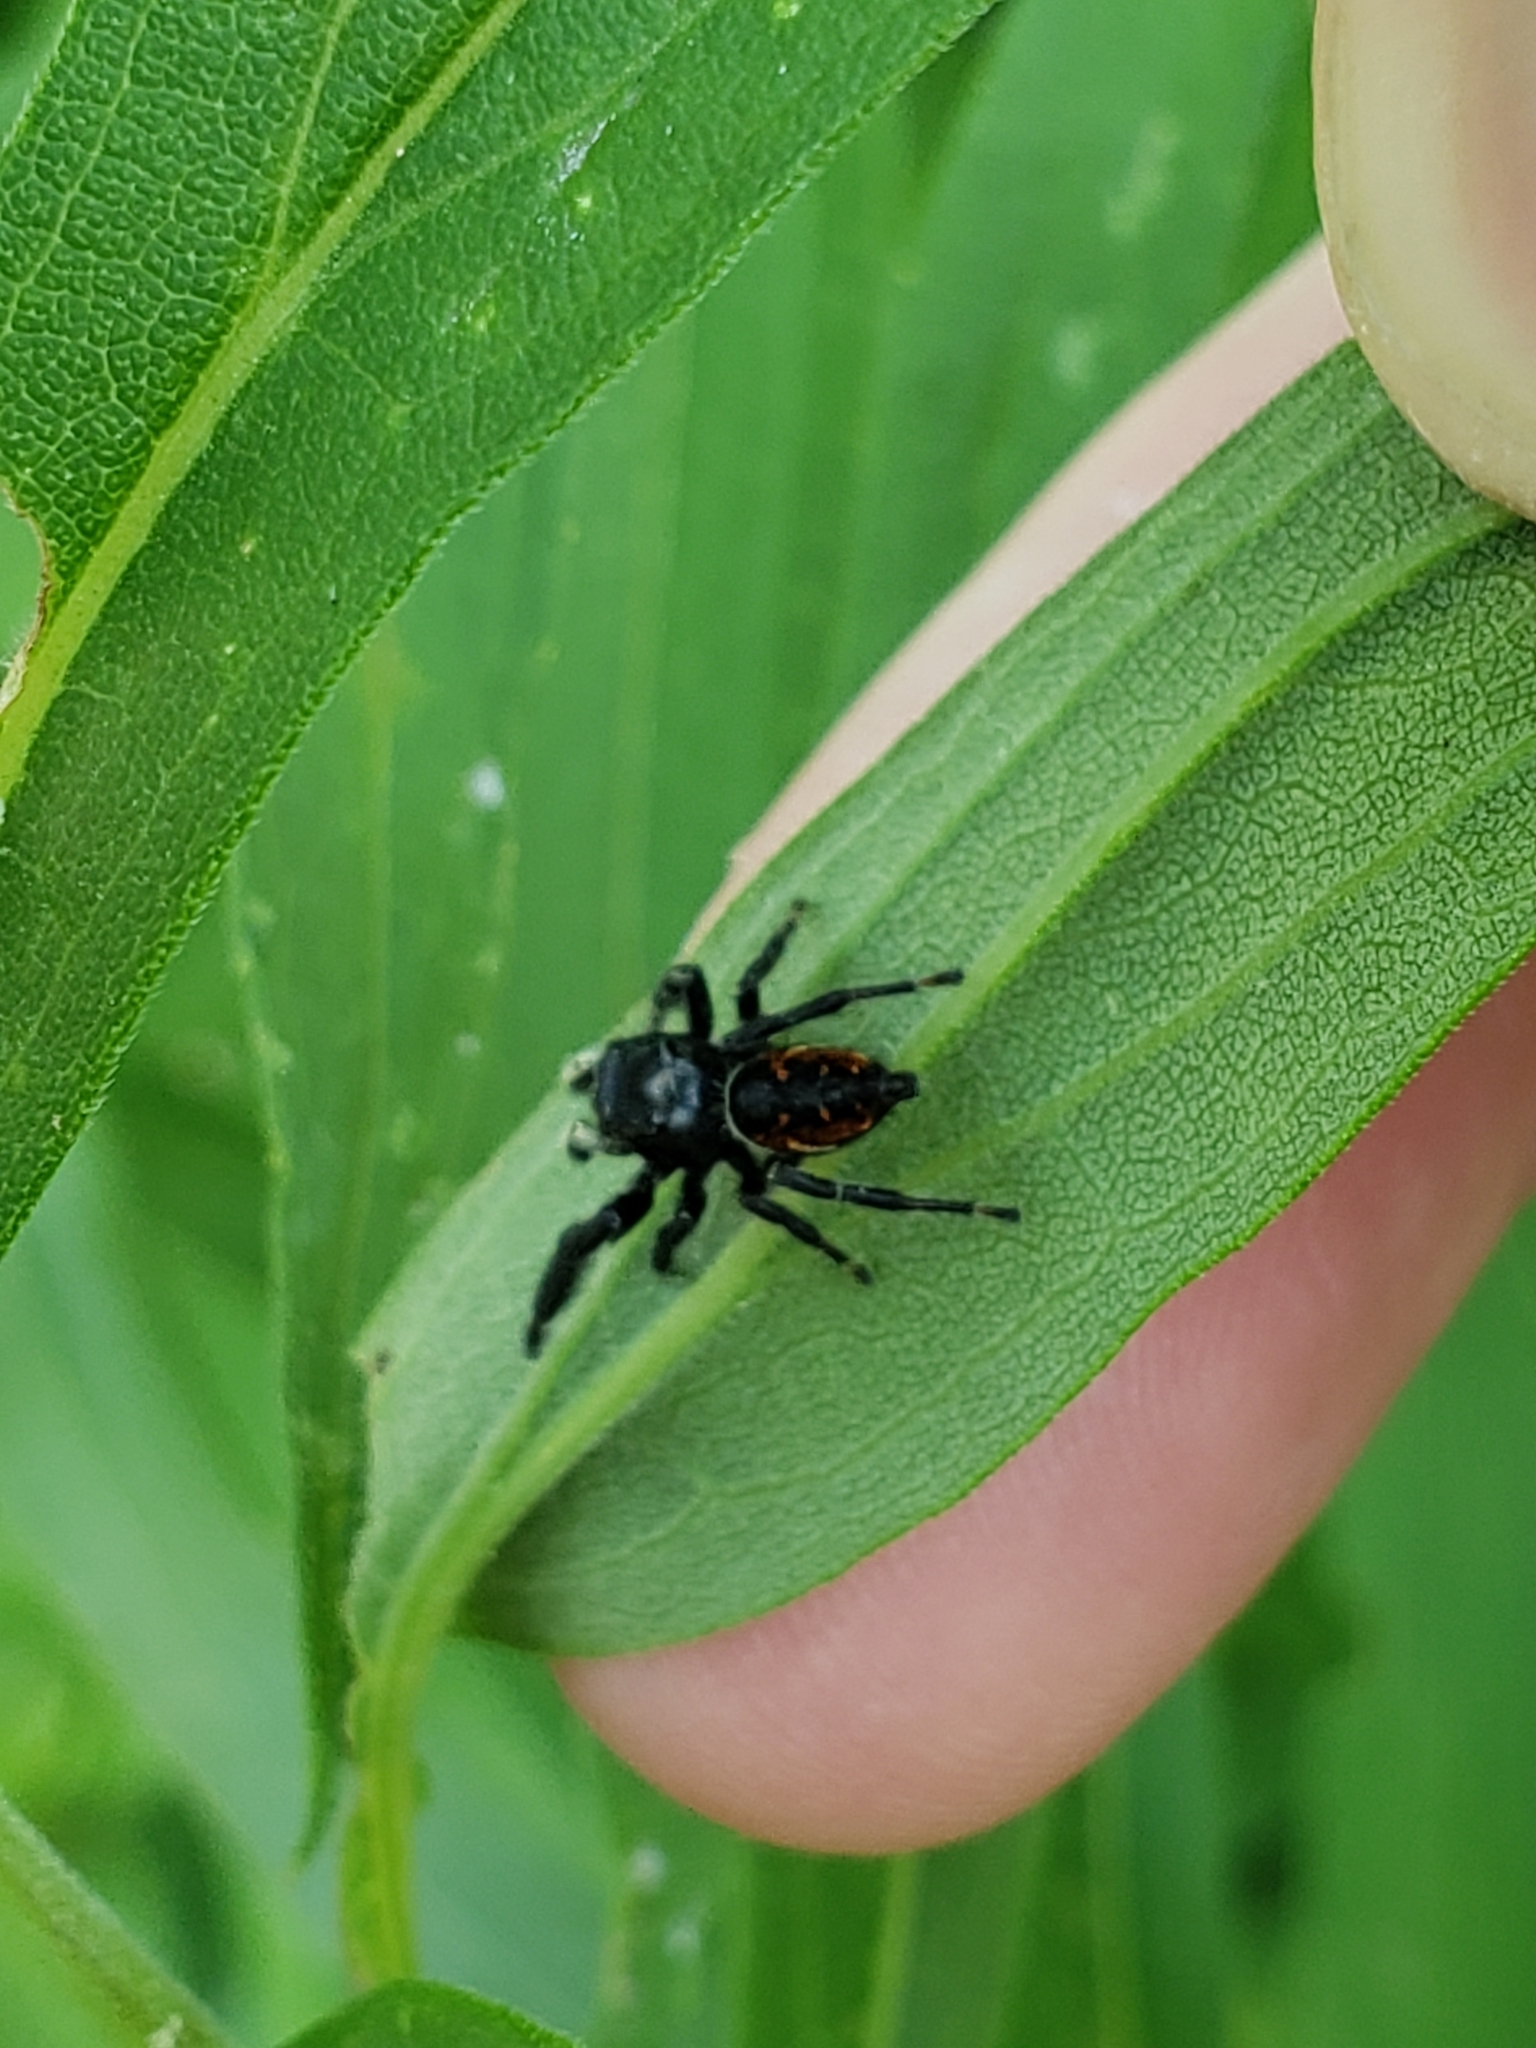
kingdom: Animalia
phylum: Arthropoda
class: Arachnida
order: Araneae
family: Salticidae
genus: Phidippus
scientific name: Phidippus clarus
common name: Brilliant jumping spider
